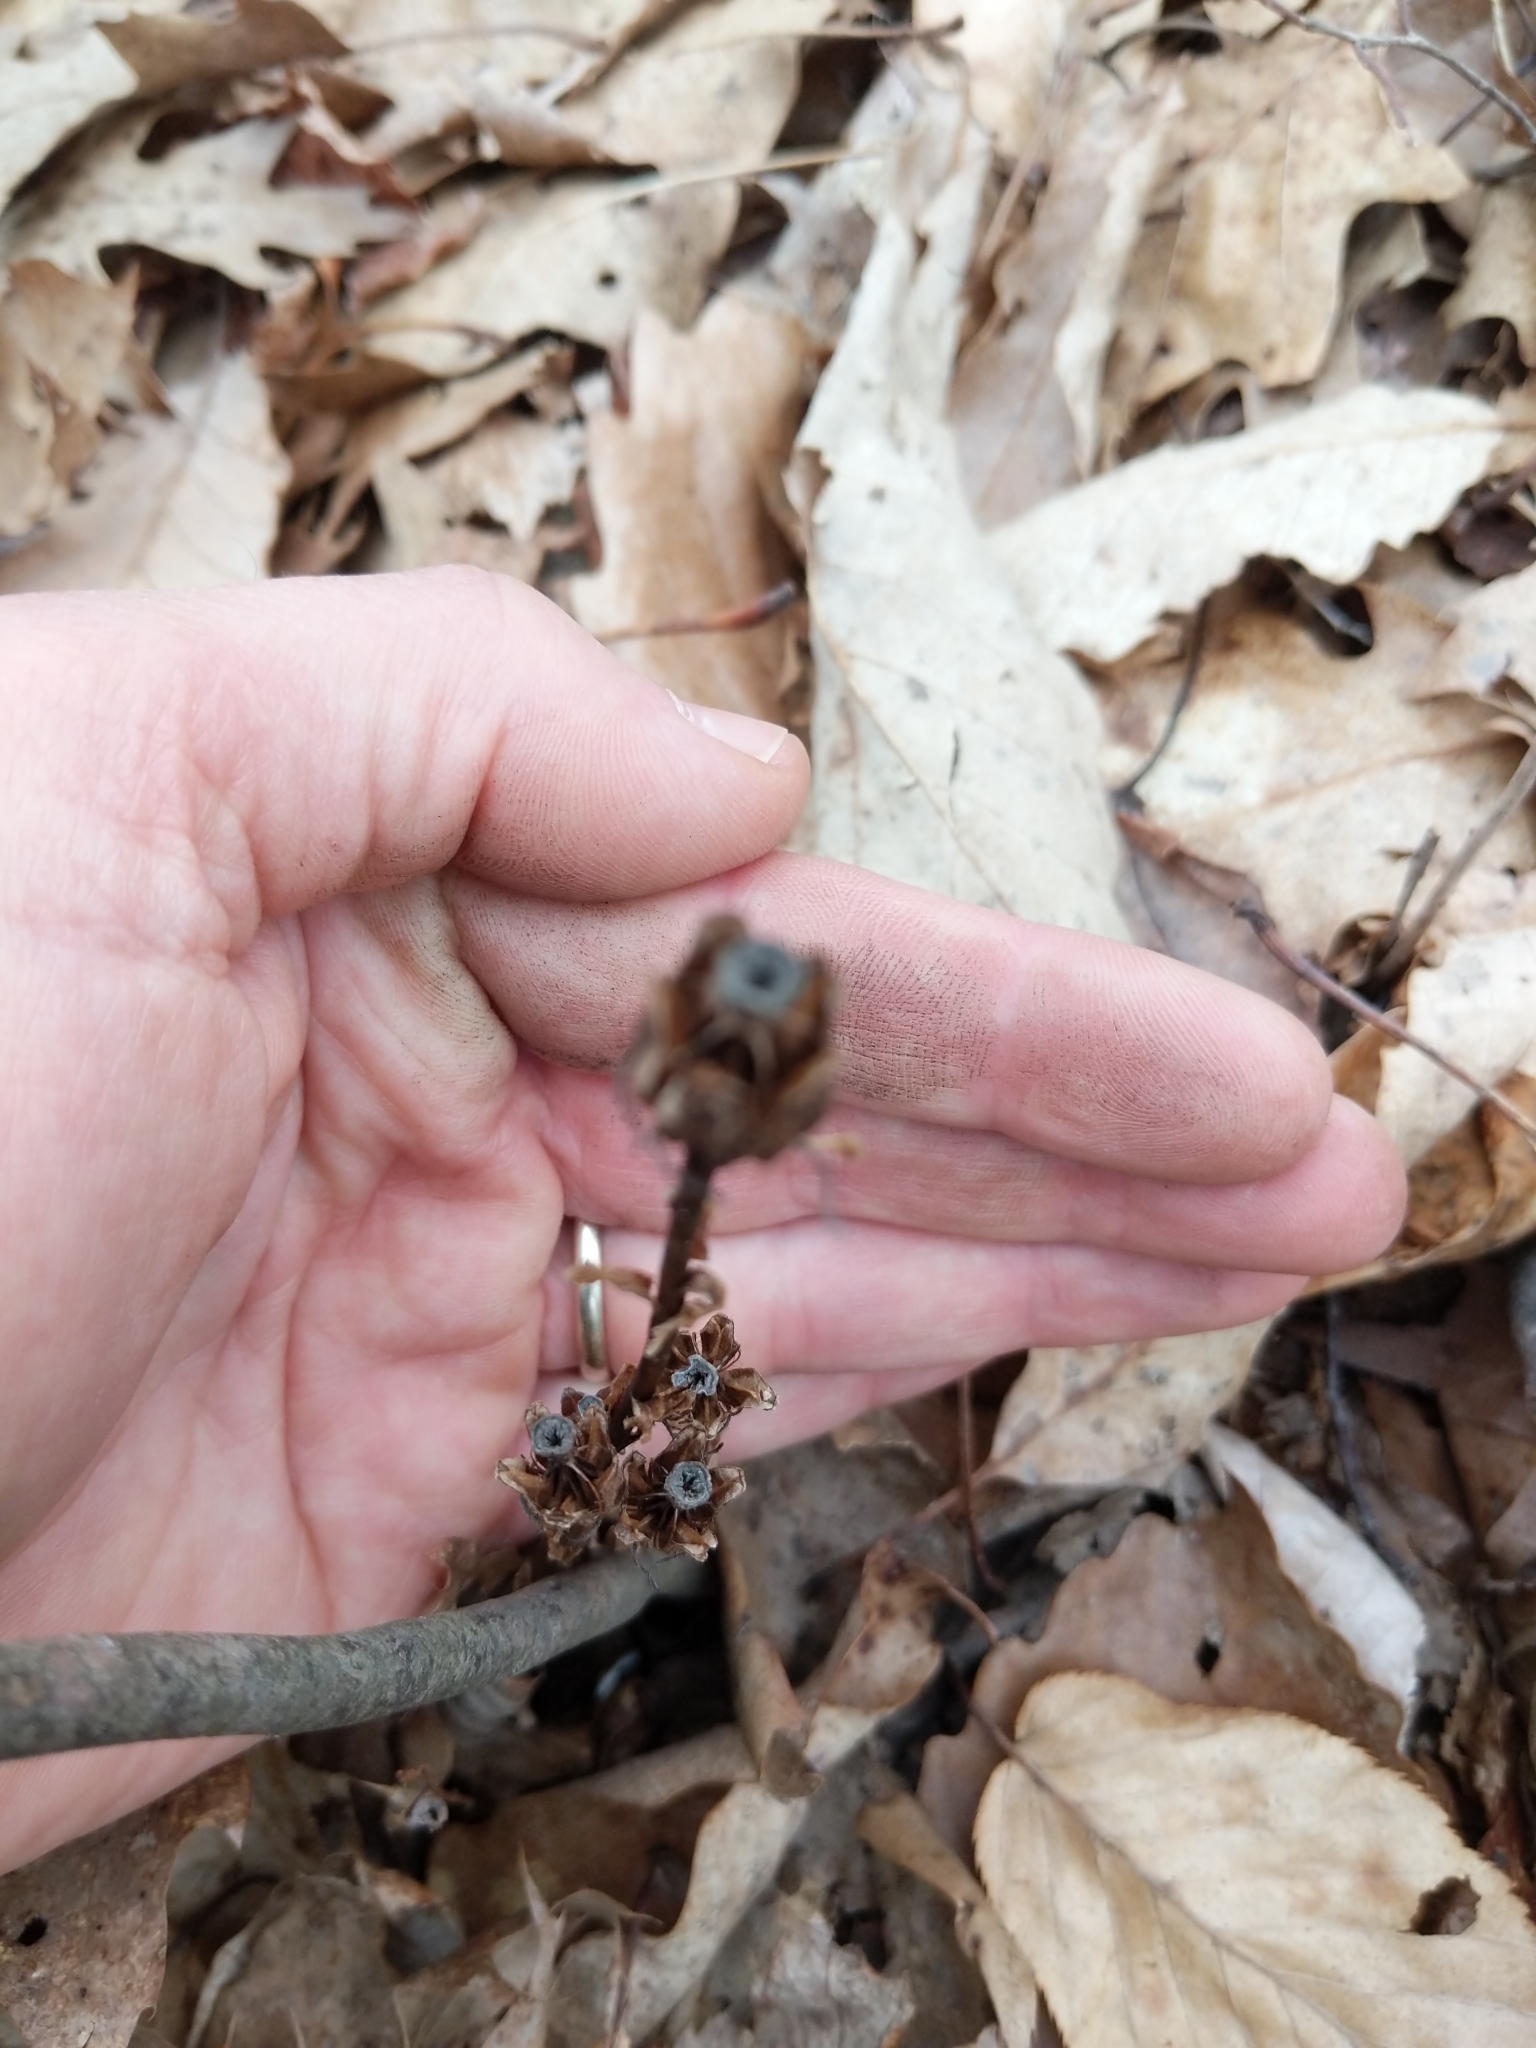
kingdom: Plantae
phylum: Tracheophyta
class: Magnoliopsida
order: Ericales
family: Ericaceae
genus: Monotropa
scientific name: Monotropa uniflora
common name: Convulsion root
